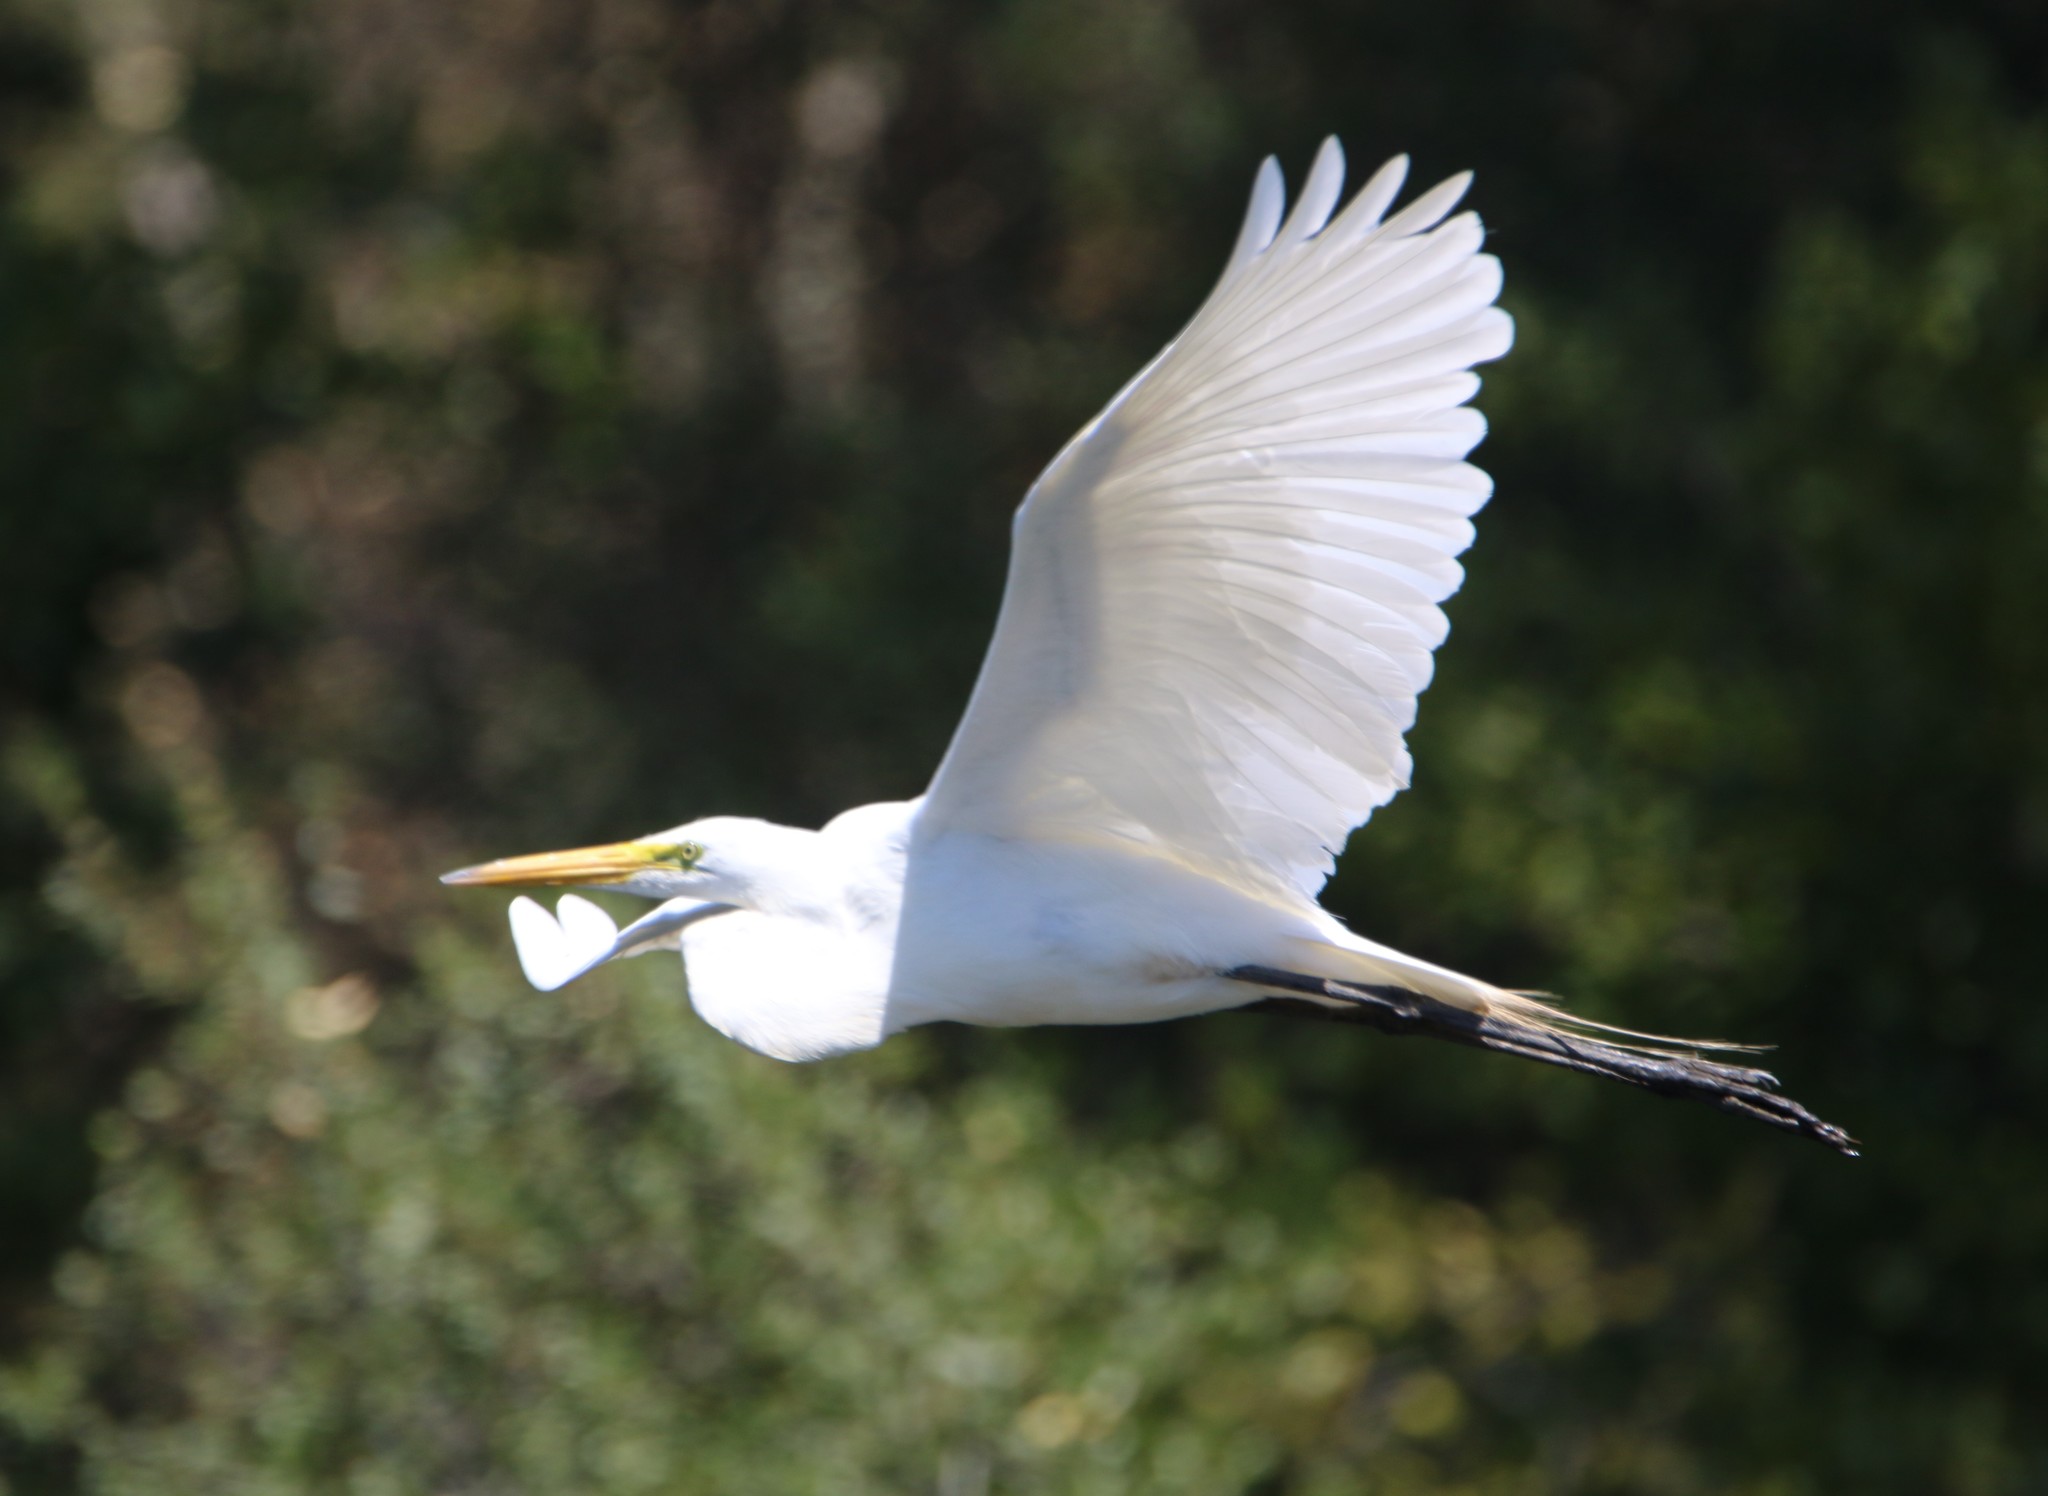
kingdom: Animalia
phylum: Chordata
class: Aves
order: Pelecaniformes
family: Ardeidae
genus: Ardea
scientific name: Ardea alba
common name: Great egret
